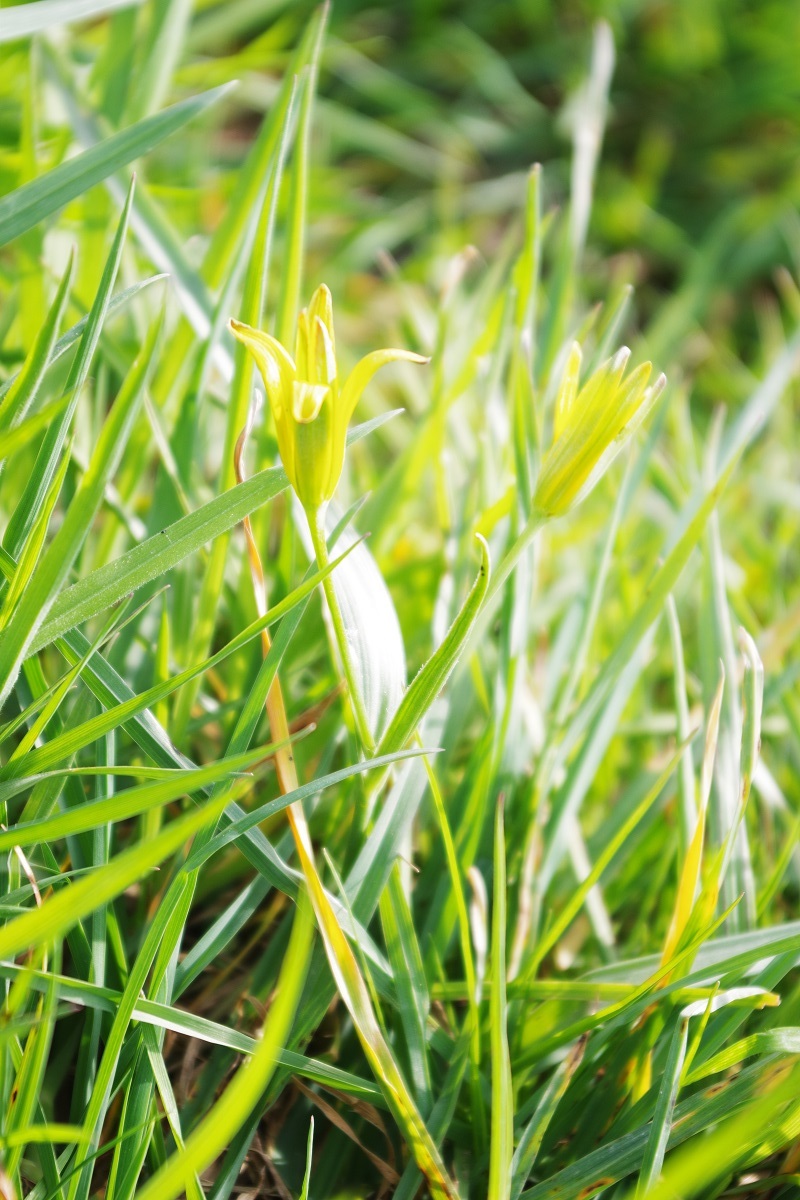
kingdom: Plantae
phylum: Tracheophyta
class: Liliopsida
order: Liliales
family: Liliaceae
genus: Gagea
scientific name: Gagea pratensis
